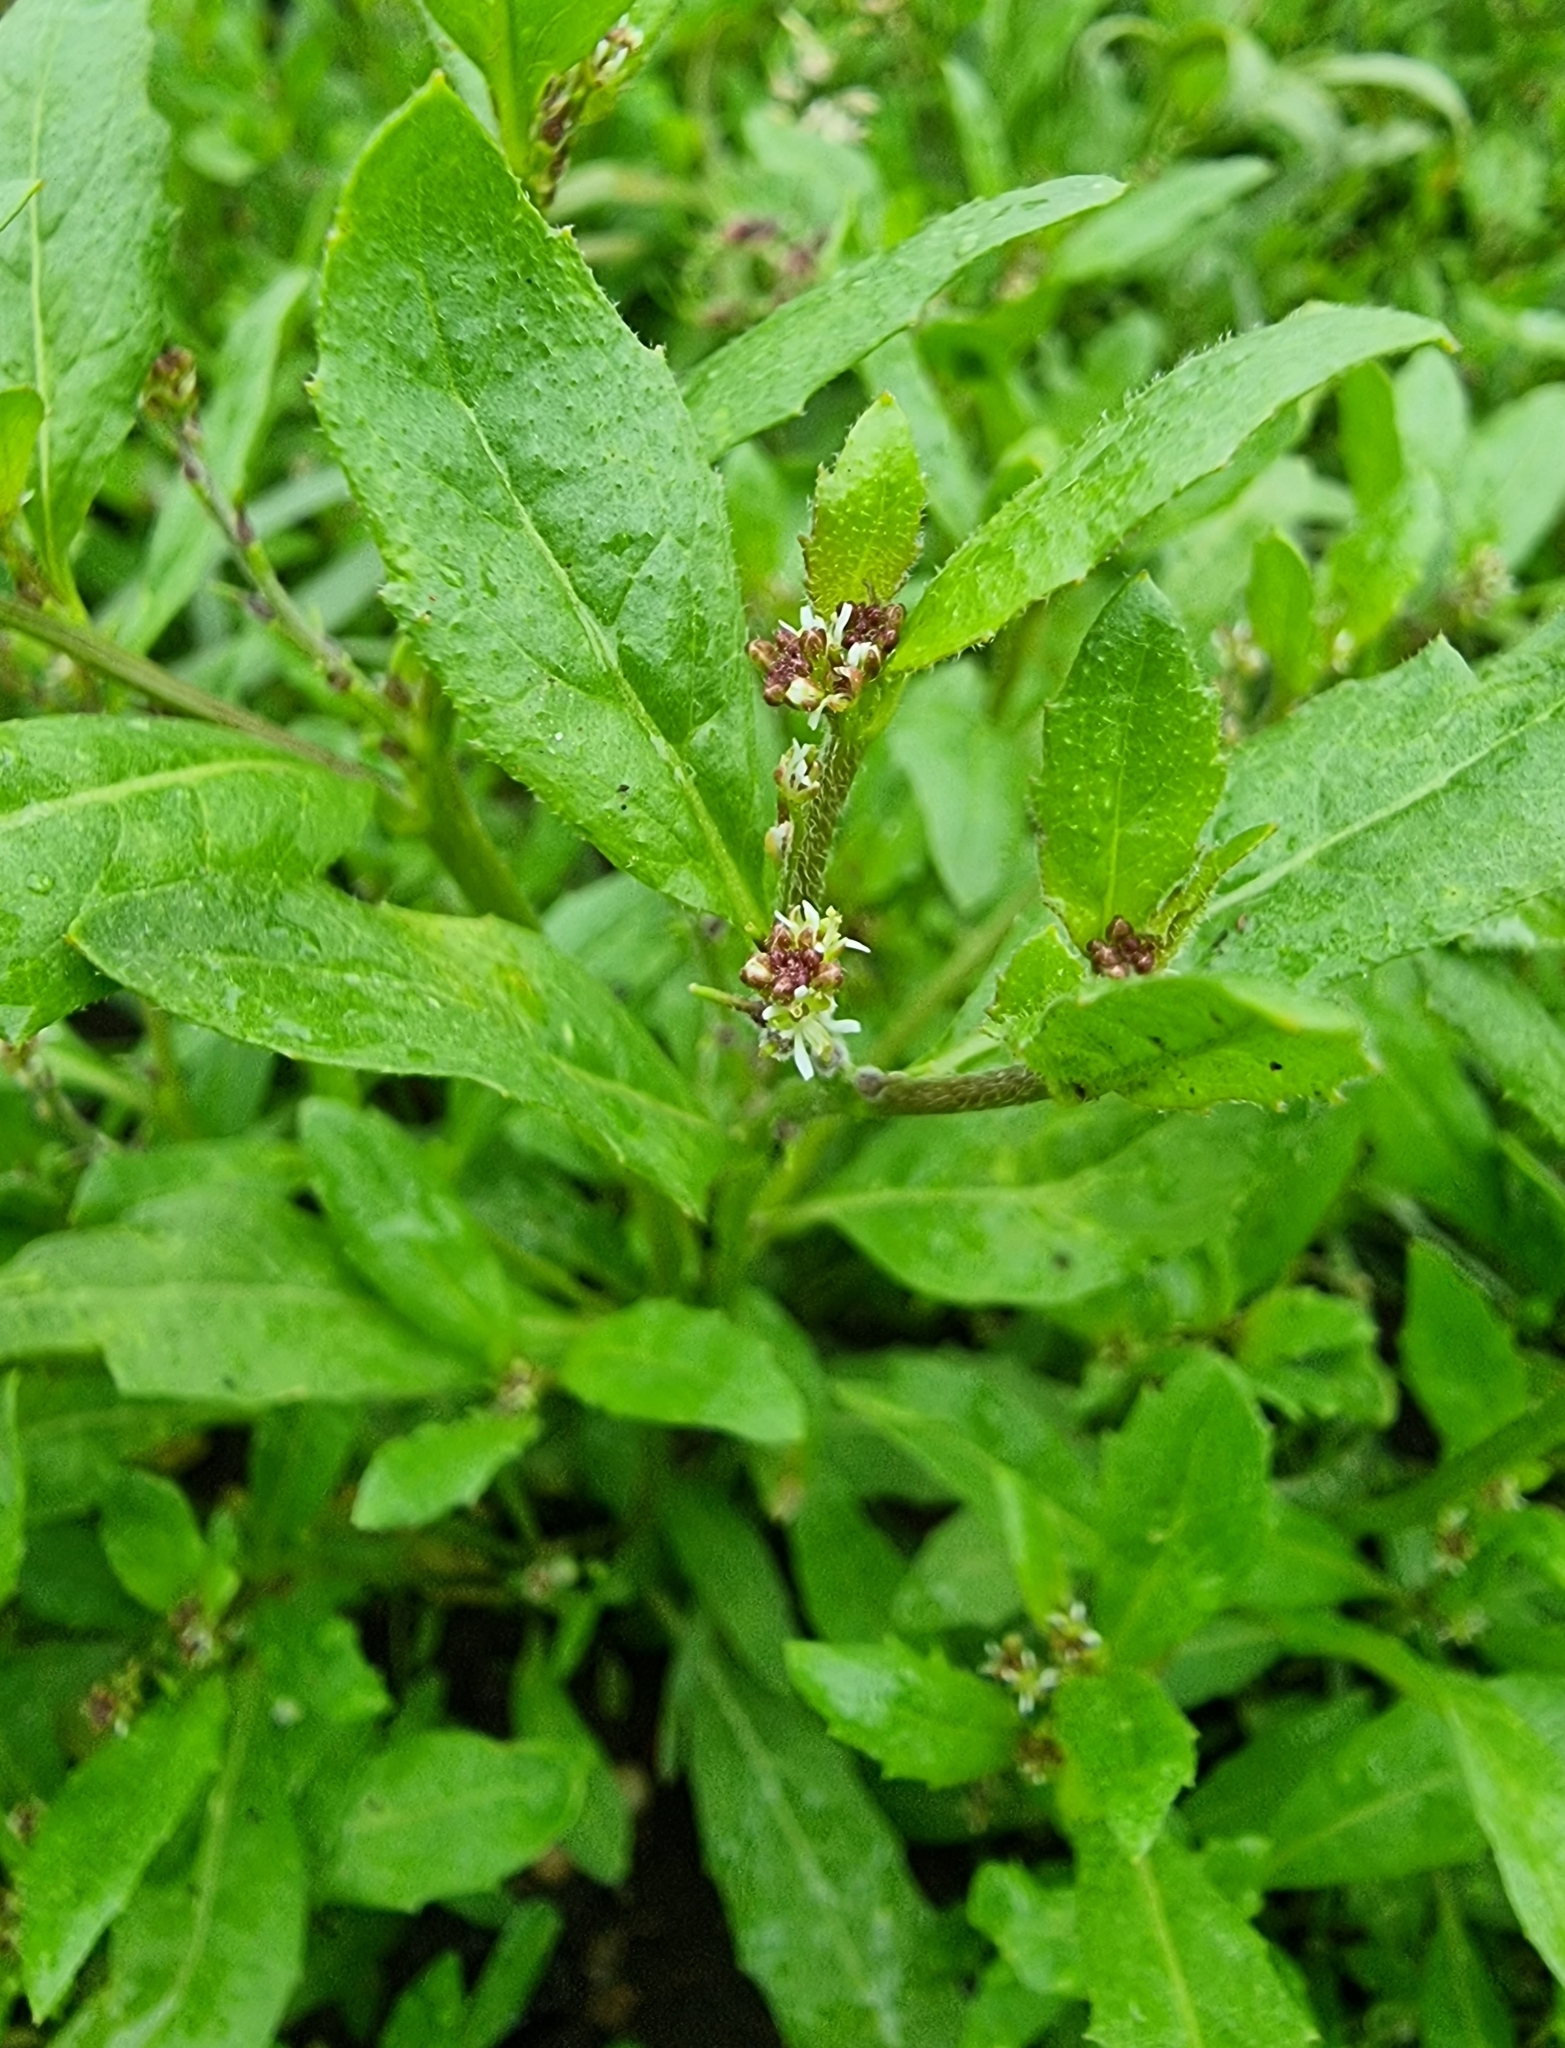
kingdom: Plantae
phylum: Tracheophyta
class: Magnoliopsida
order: Brassicales
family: Brassicaceae
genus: Euclidium
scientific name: Euclidium syriacum
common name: Syrian mustard
